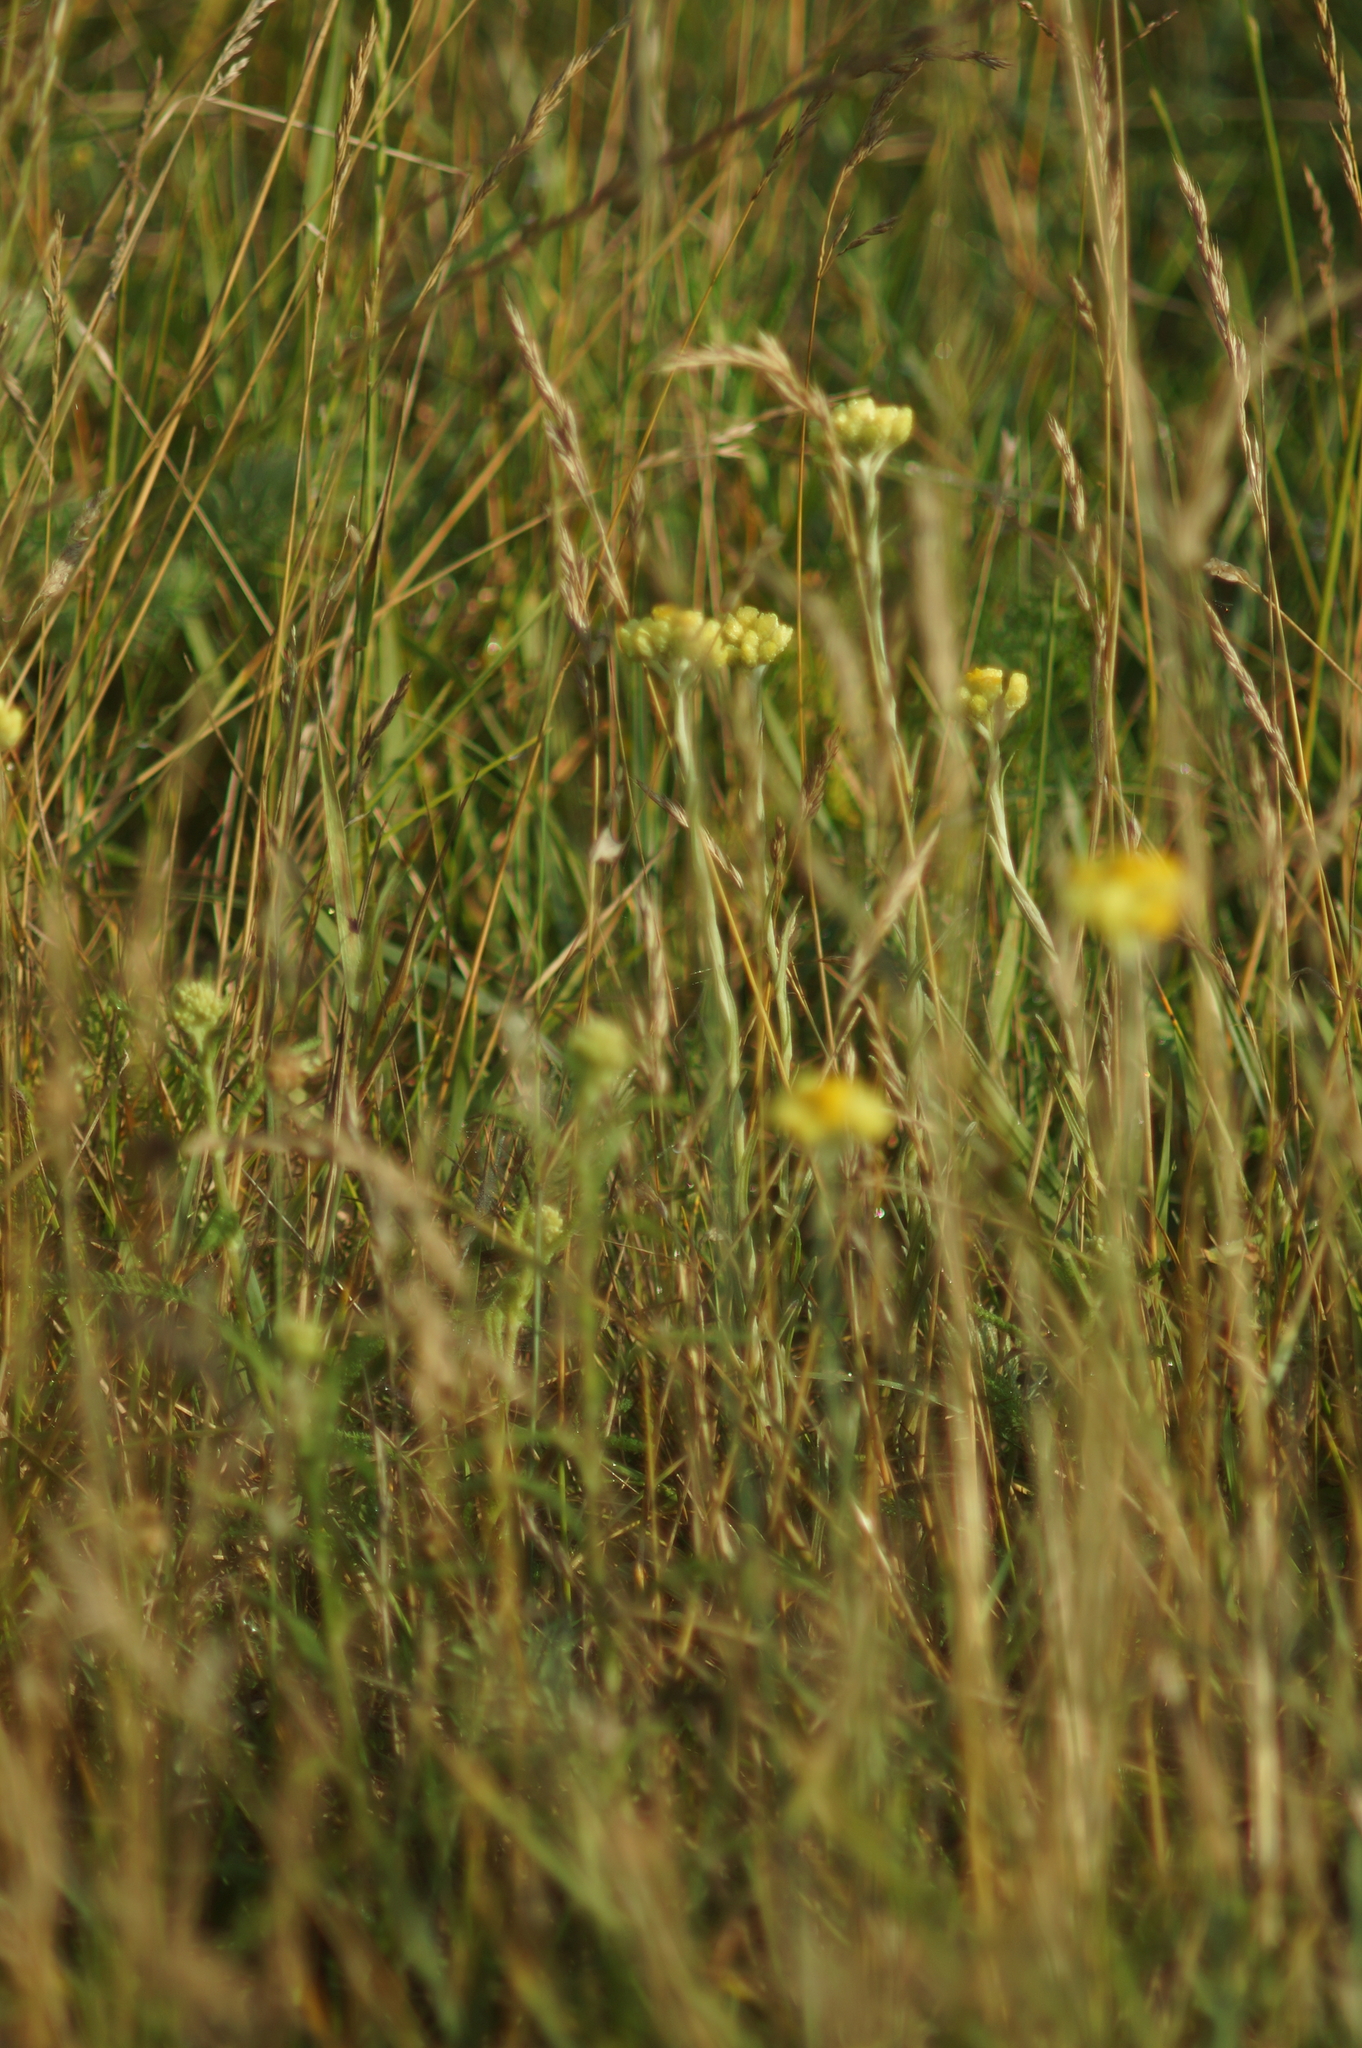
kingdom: Plantae
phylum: Tracheophyta
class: Magnoliopsida
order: Asterales
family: Asteraceae
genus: Helichrysum
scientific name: Helichrysum arenarium
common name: Strawflower
